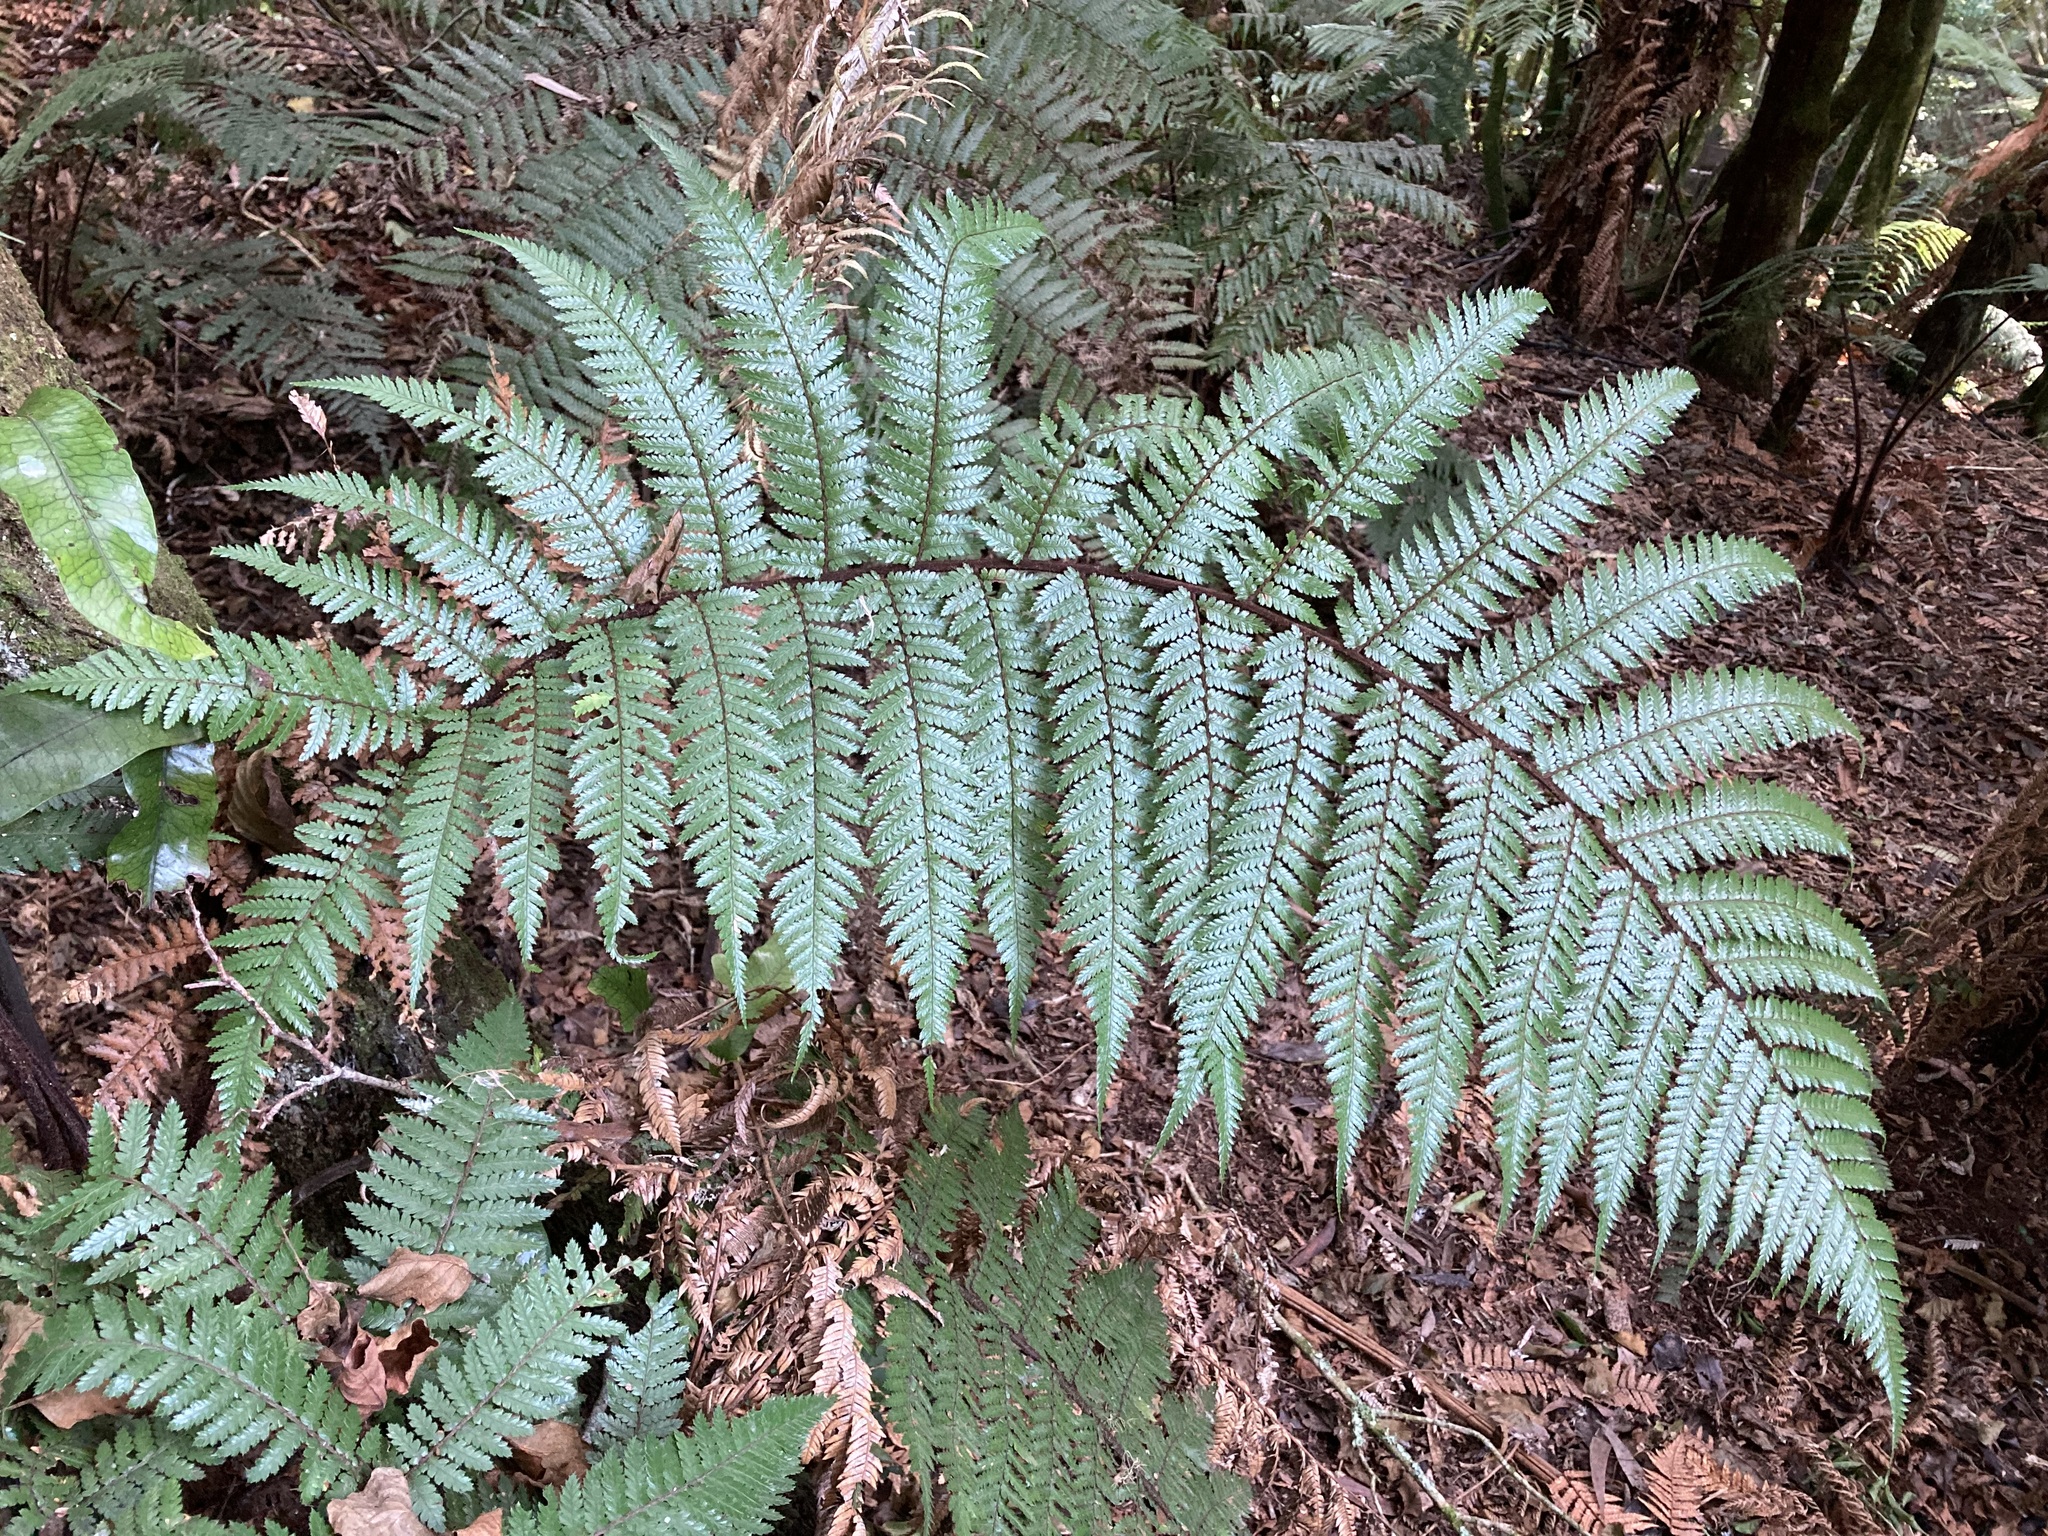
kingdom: Plantae
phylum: Tracheophyta
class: Polypodiopsida
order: Cyatheales
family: Dicksoniaceae
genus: Dicksonia
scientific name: Dicksonia squarrosa
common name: Hard treefern
